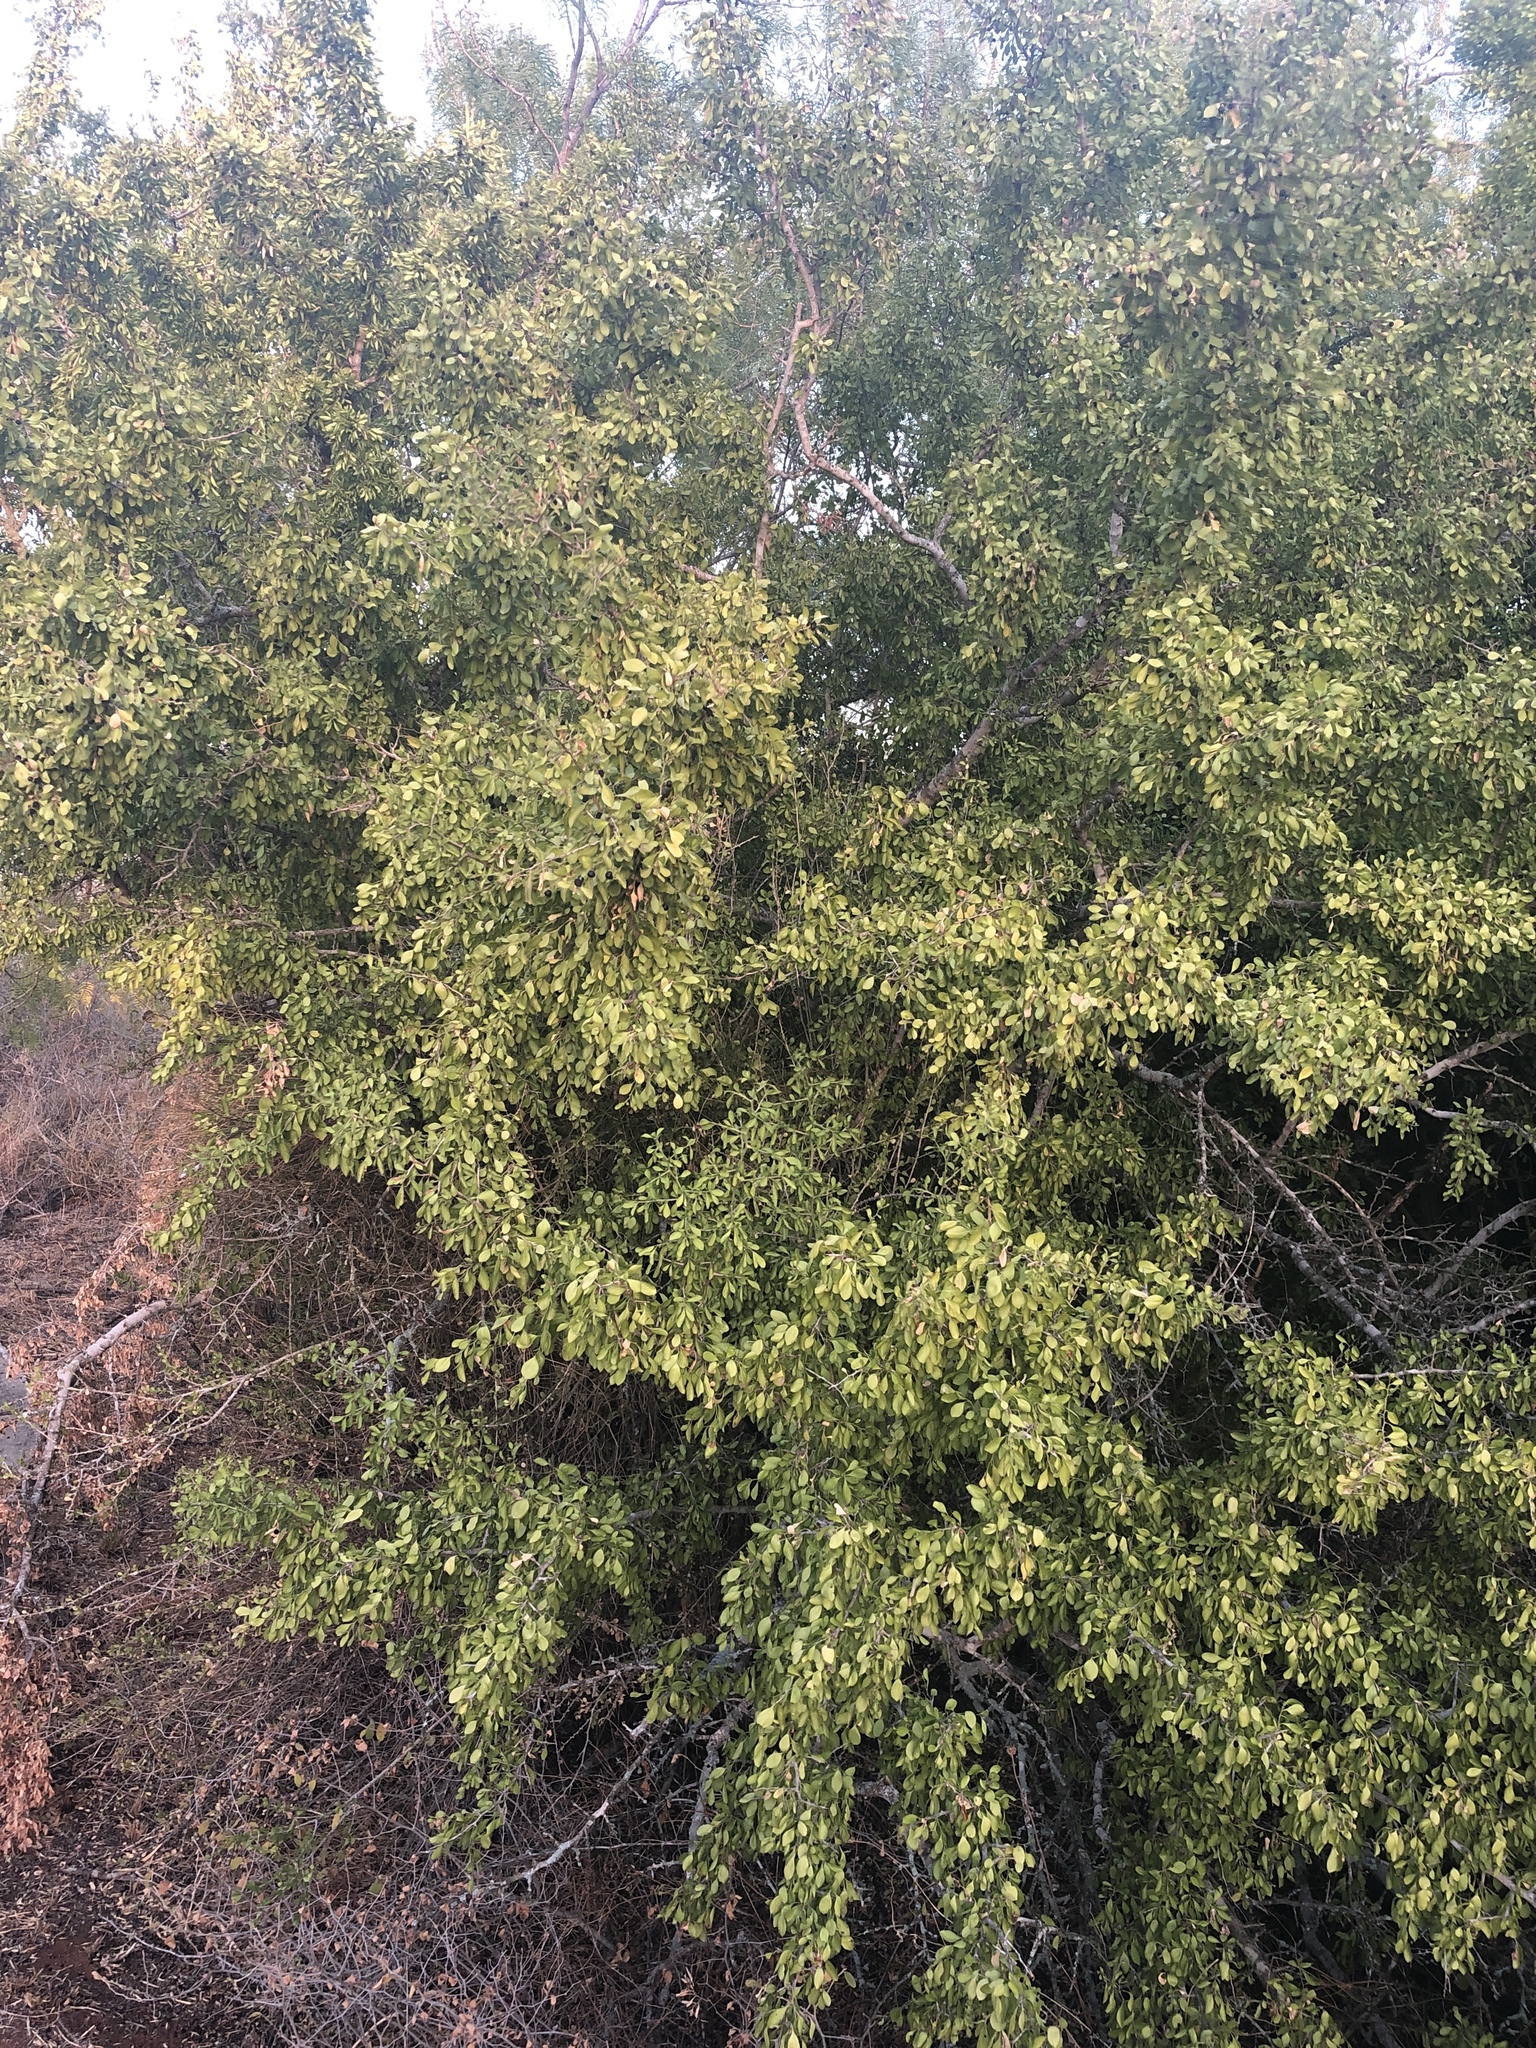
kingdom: Plantae
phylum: Tracheophyta
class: Magnoliopsida
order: Rosales
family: Rhamnaceae
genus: Condalia
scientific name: Condalia hookeri
